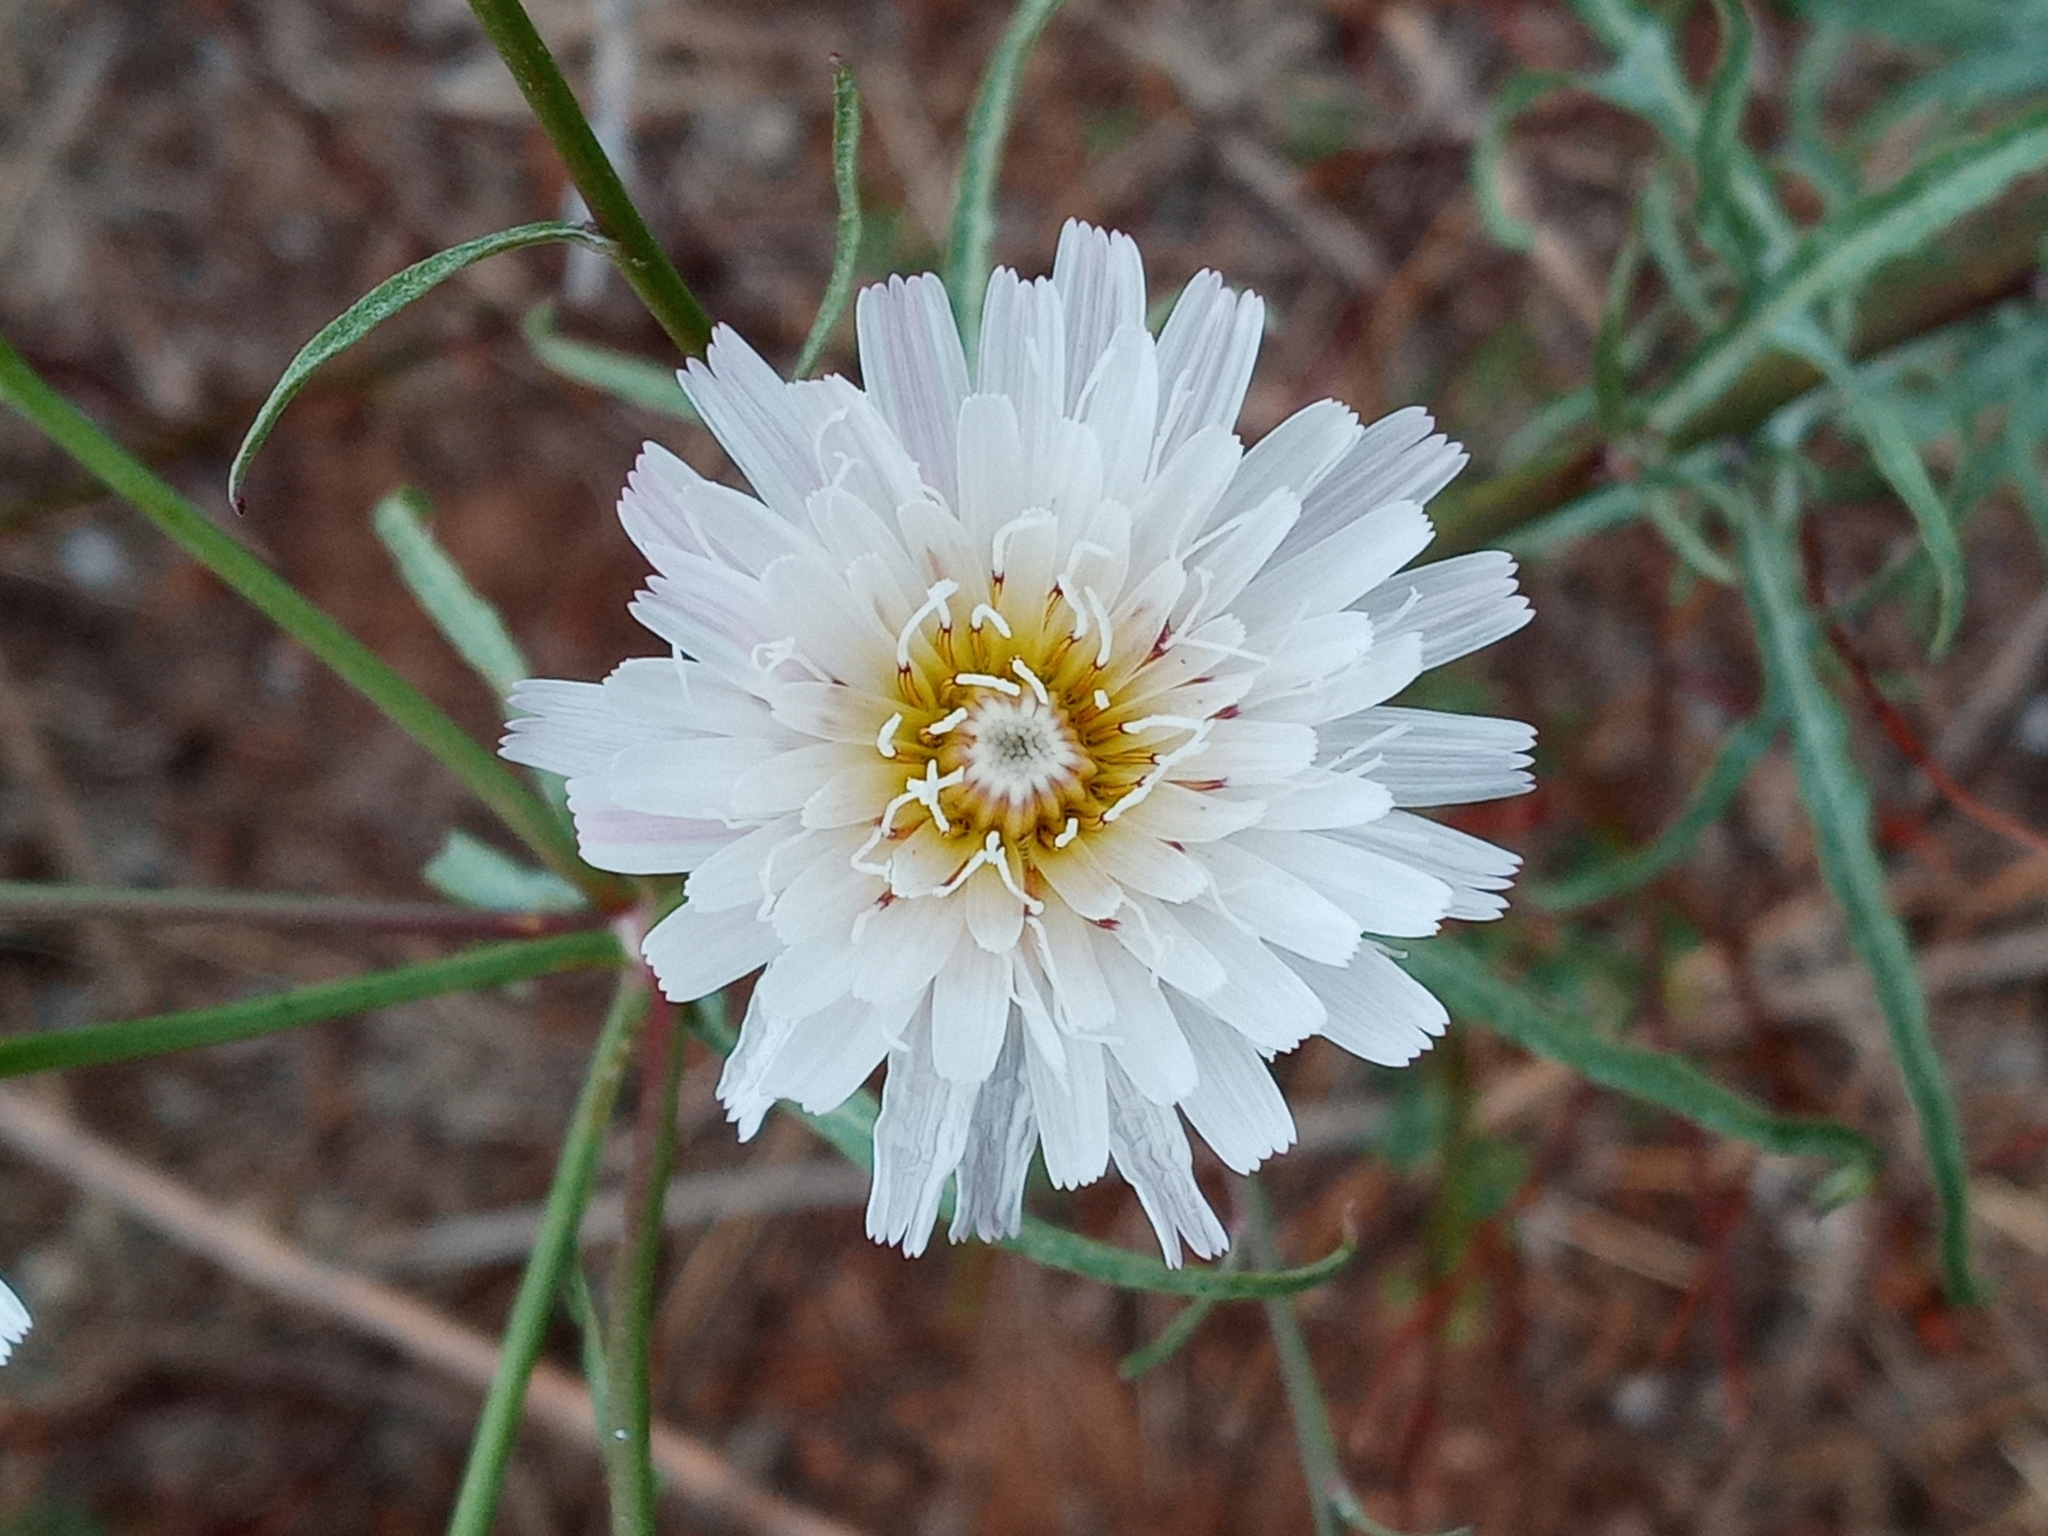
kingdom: Plantae
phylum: Tracheophyta
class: Magnoliopsida
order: Asterales
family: Asteraceae
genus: Malacothrix
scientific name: Malacothrix saxatilis
